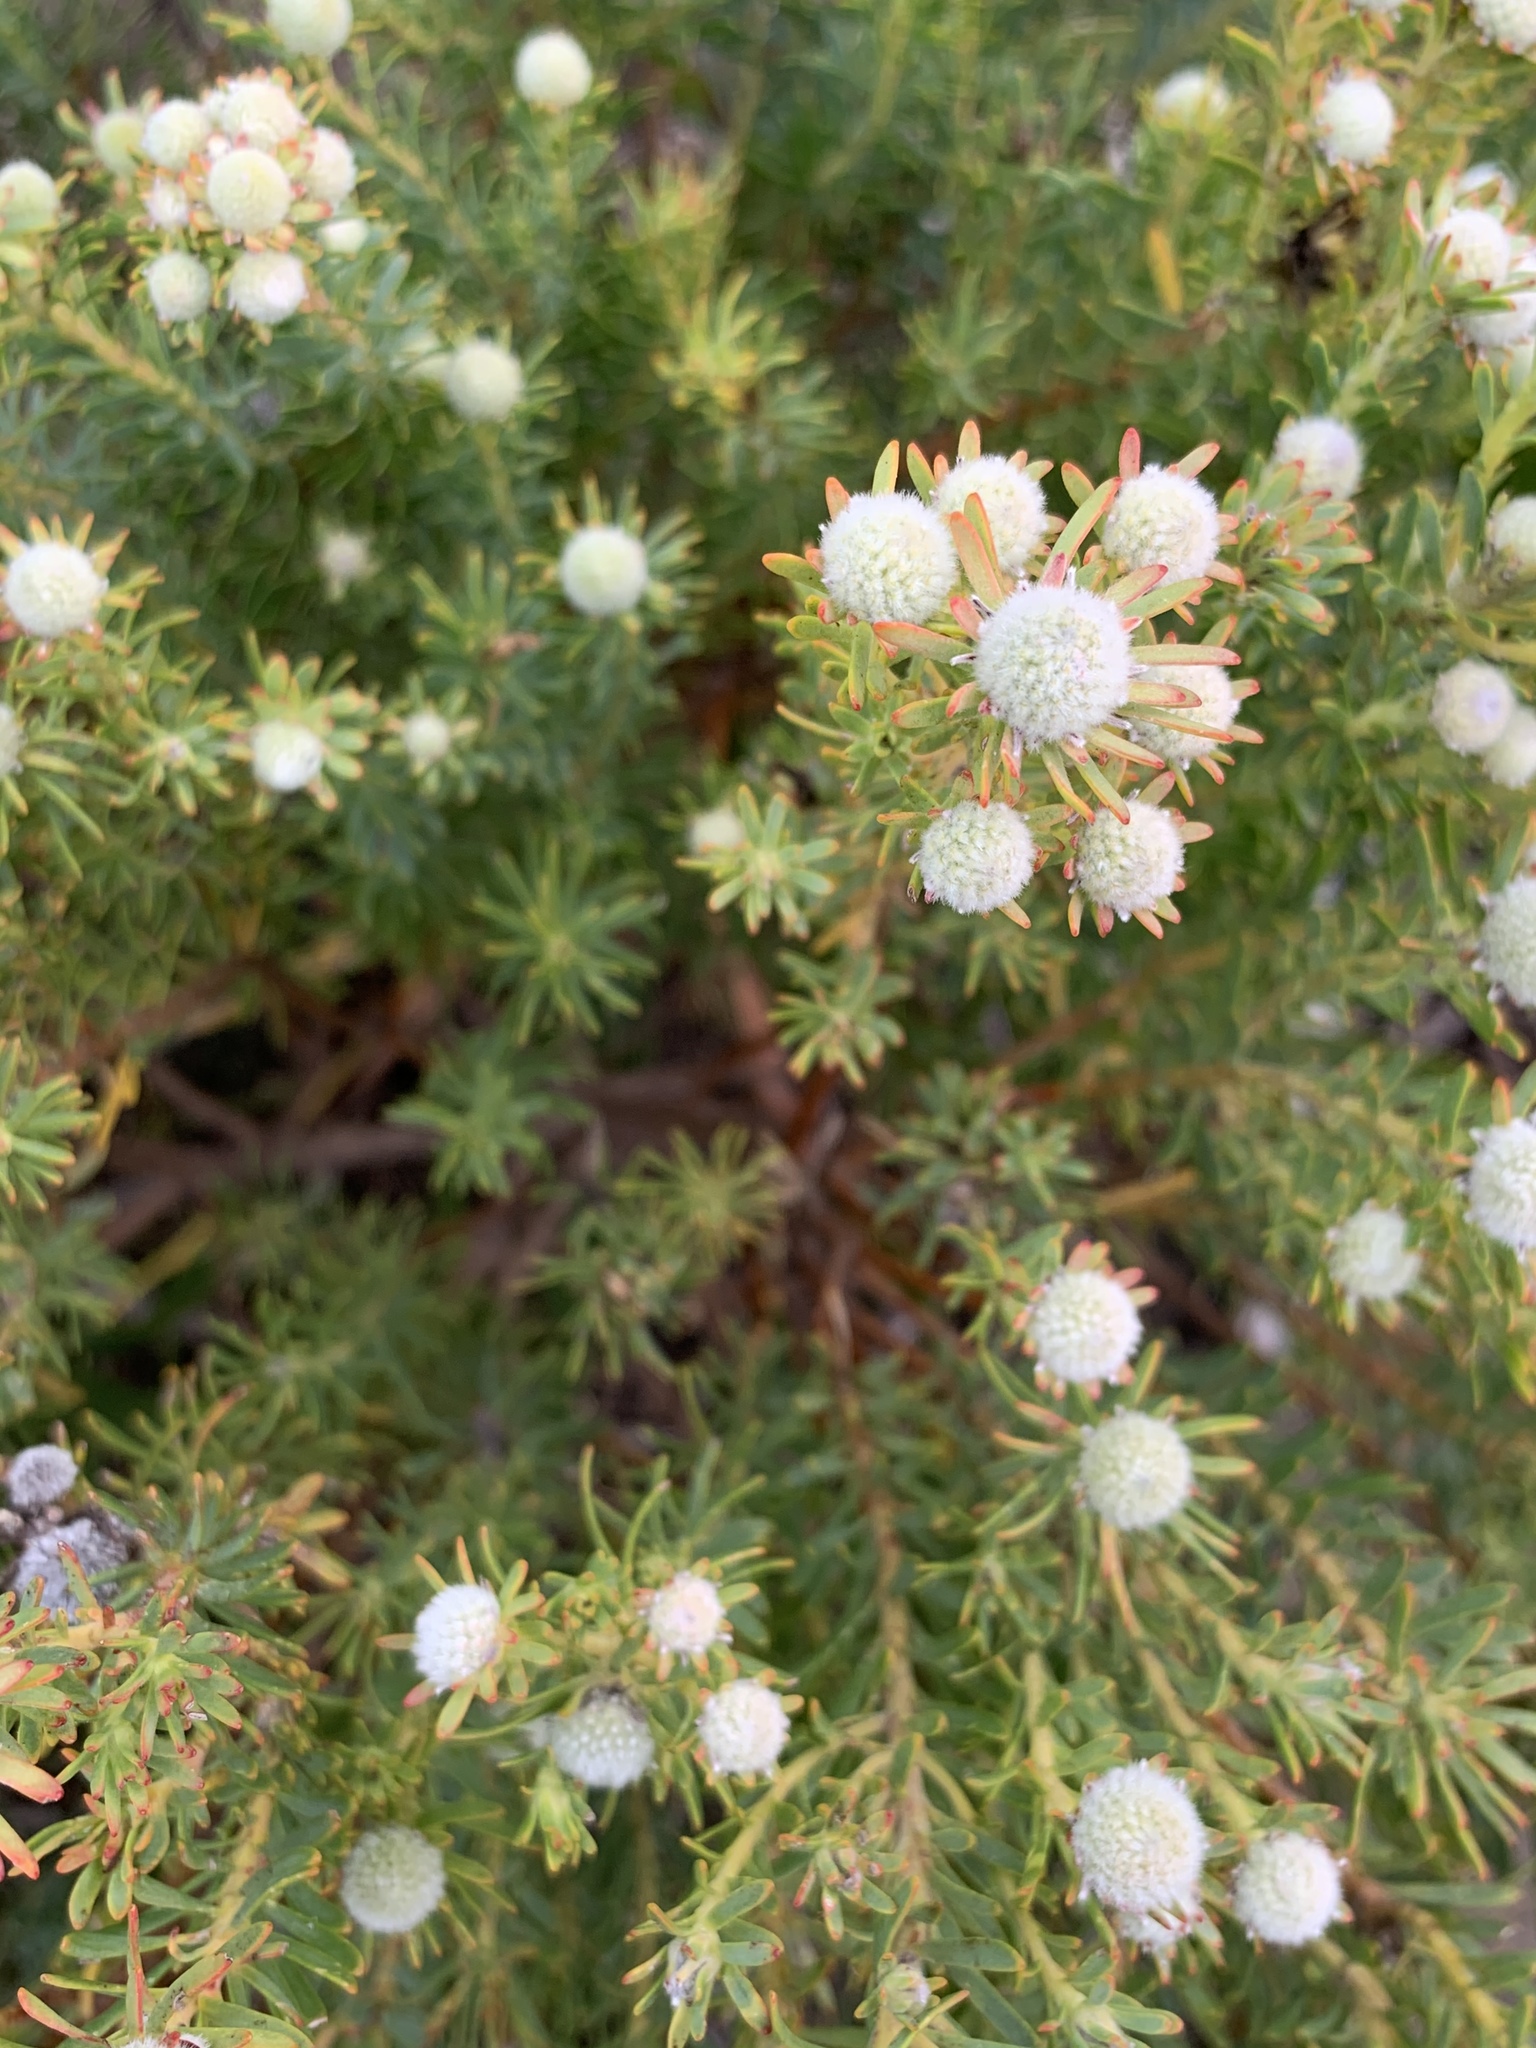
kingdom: Plantae
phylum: Tracheophyta
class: Magnoliopsida
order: Proteales
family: Proteaceae
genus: Leucadendron
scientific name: Leucadendron linifolium
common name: Line-leaf conebush
